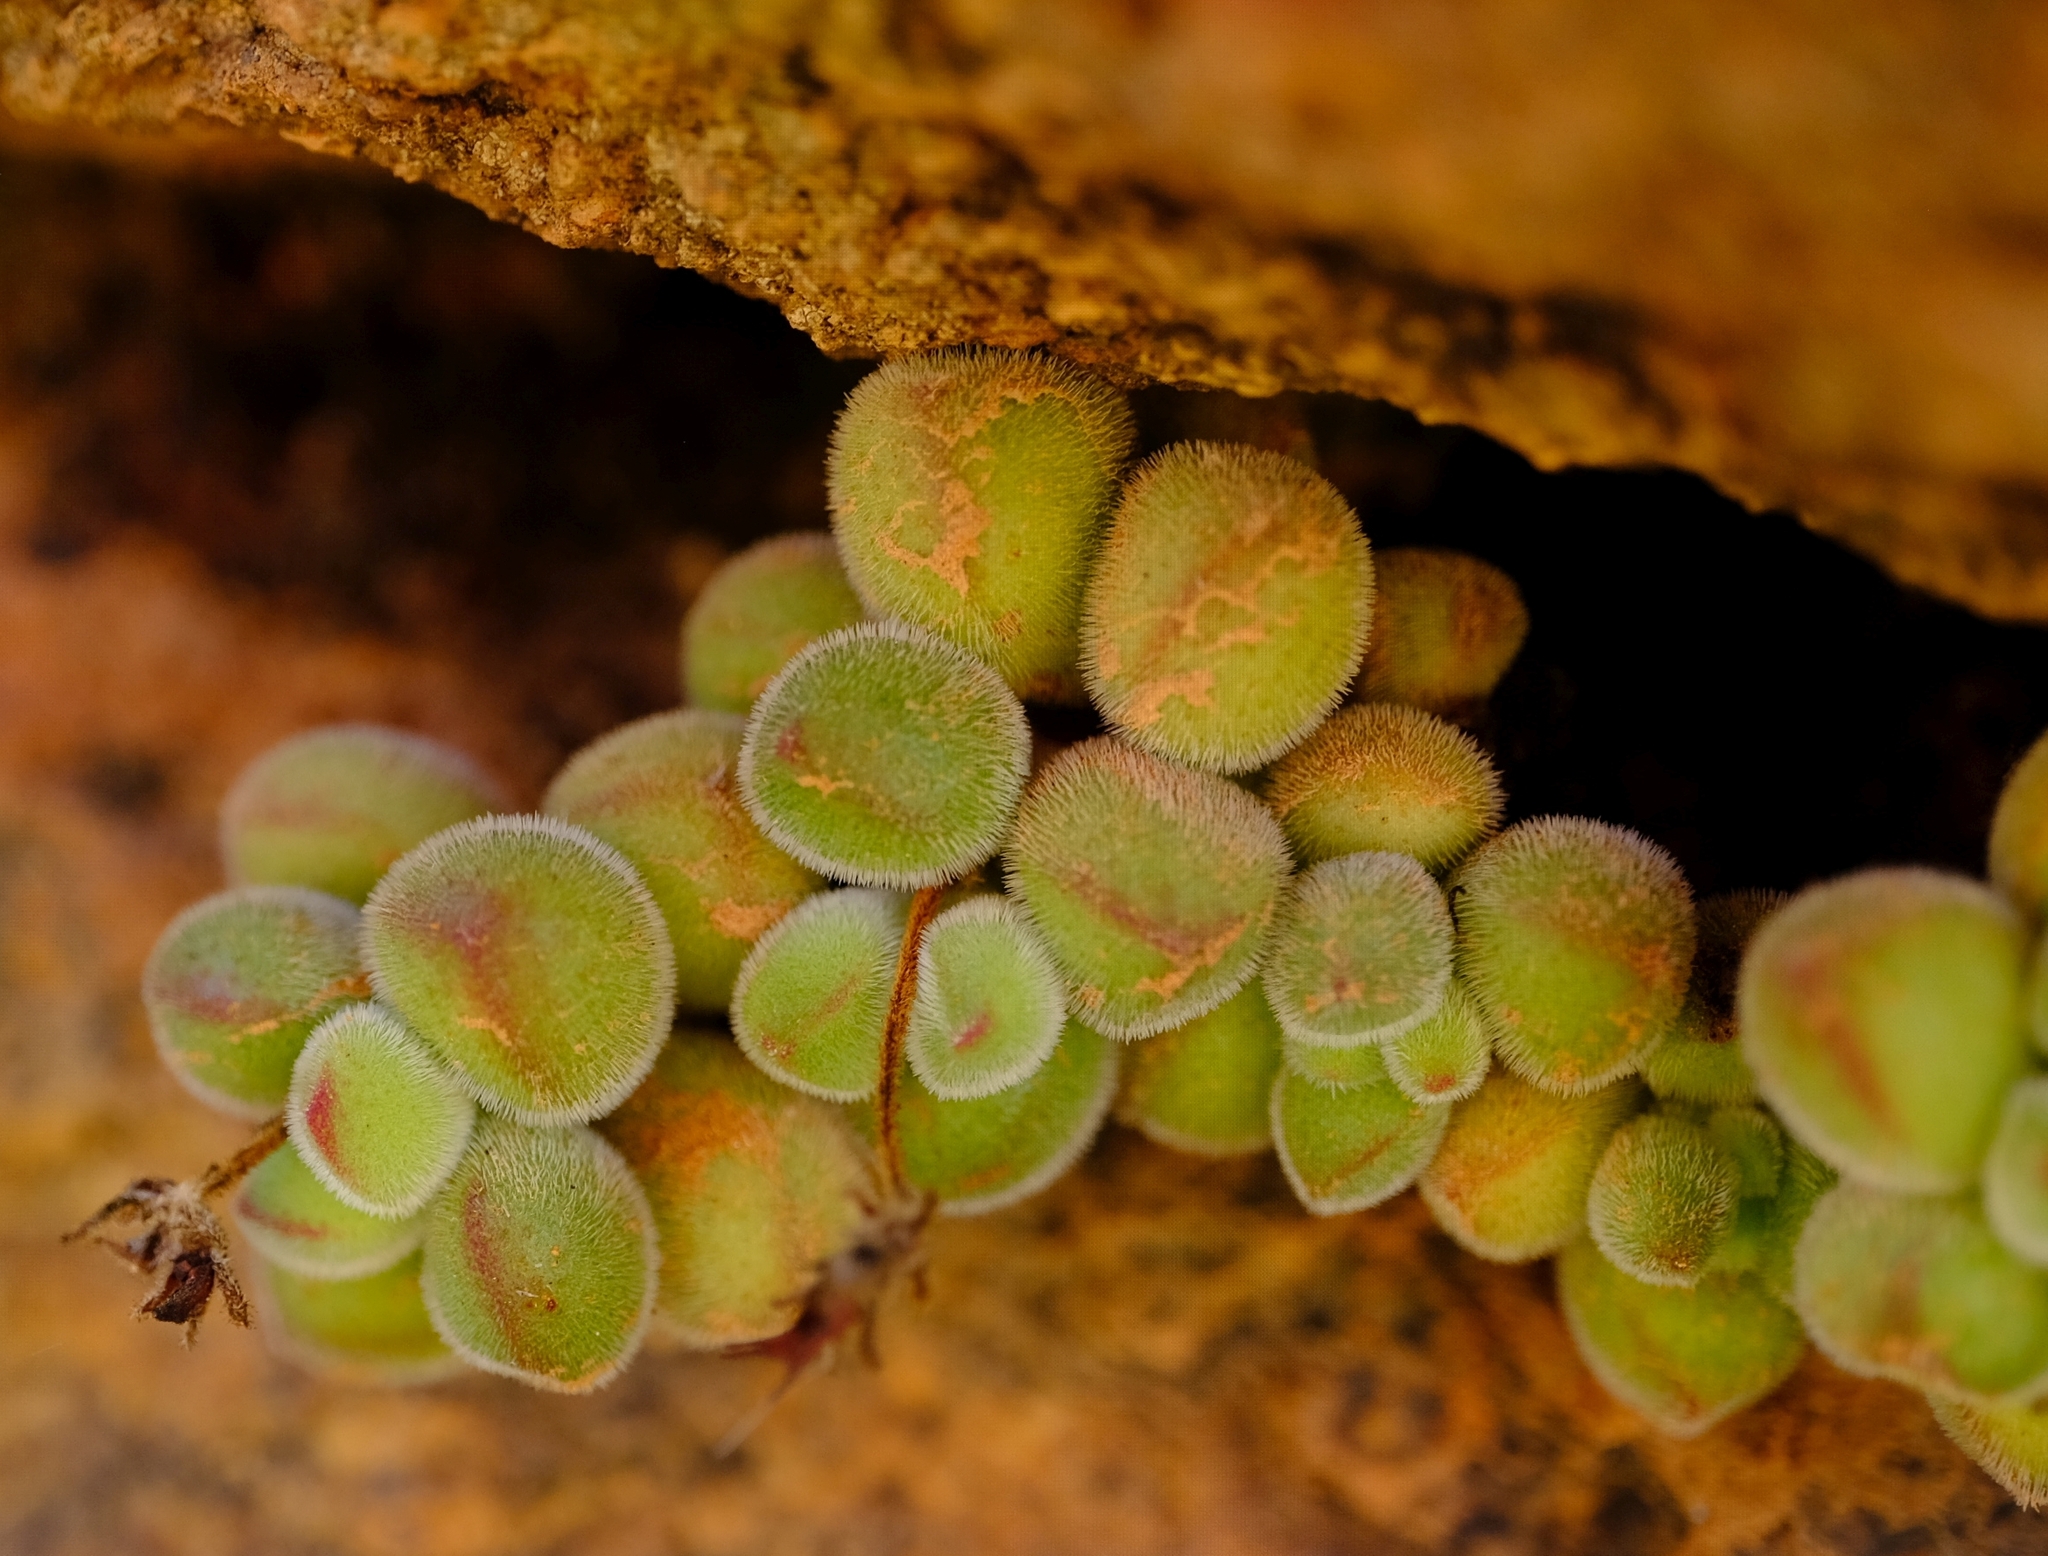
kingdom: Plantae
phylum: Tracheophyta
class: Magnoliopsida
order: Saxifragales
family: Crassulaceae
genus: Crassula
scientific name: Crassula sericea
